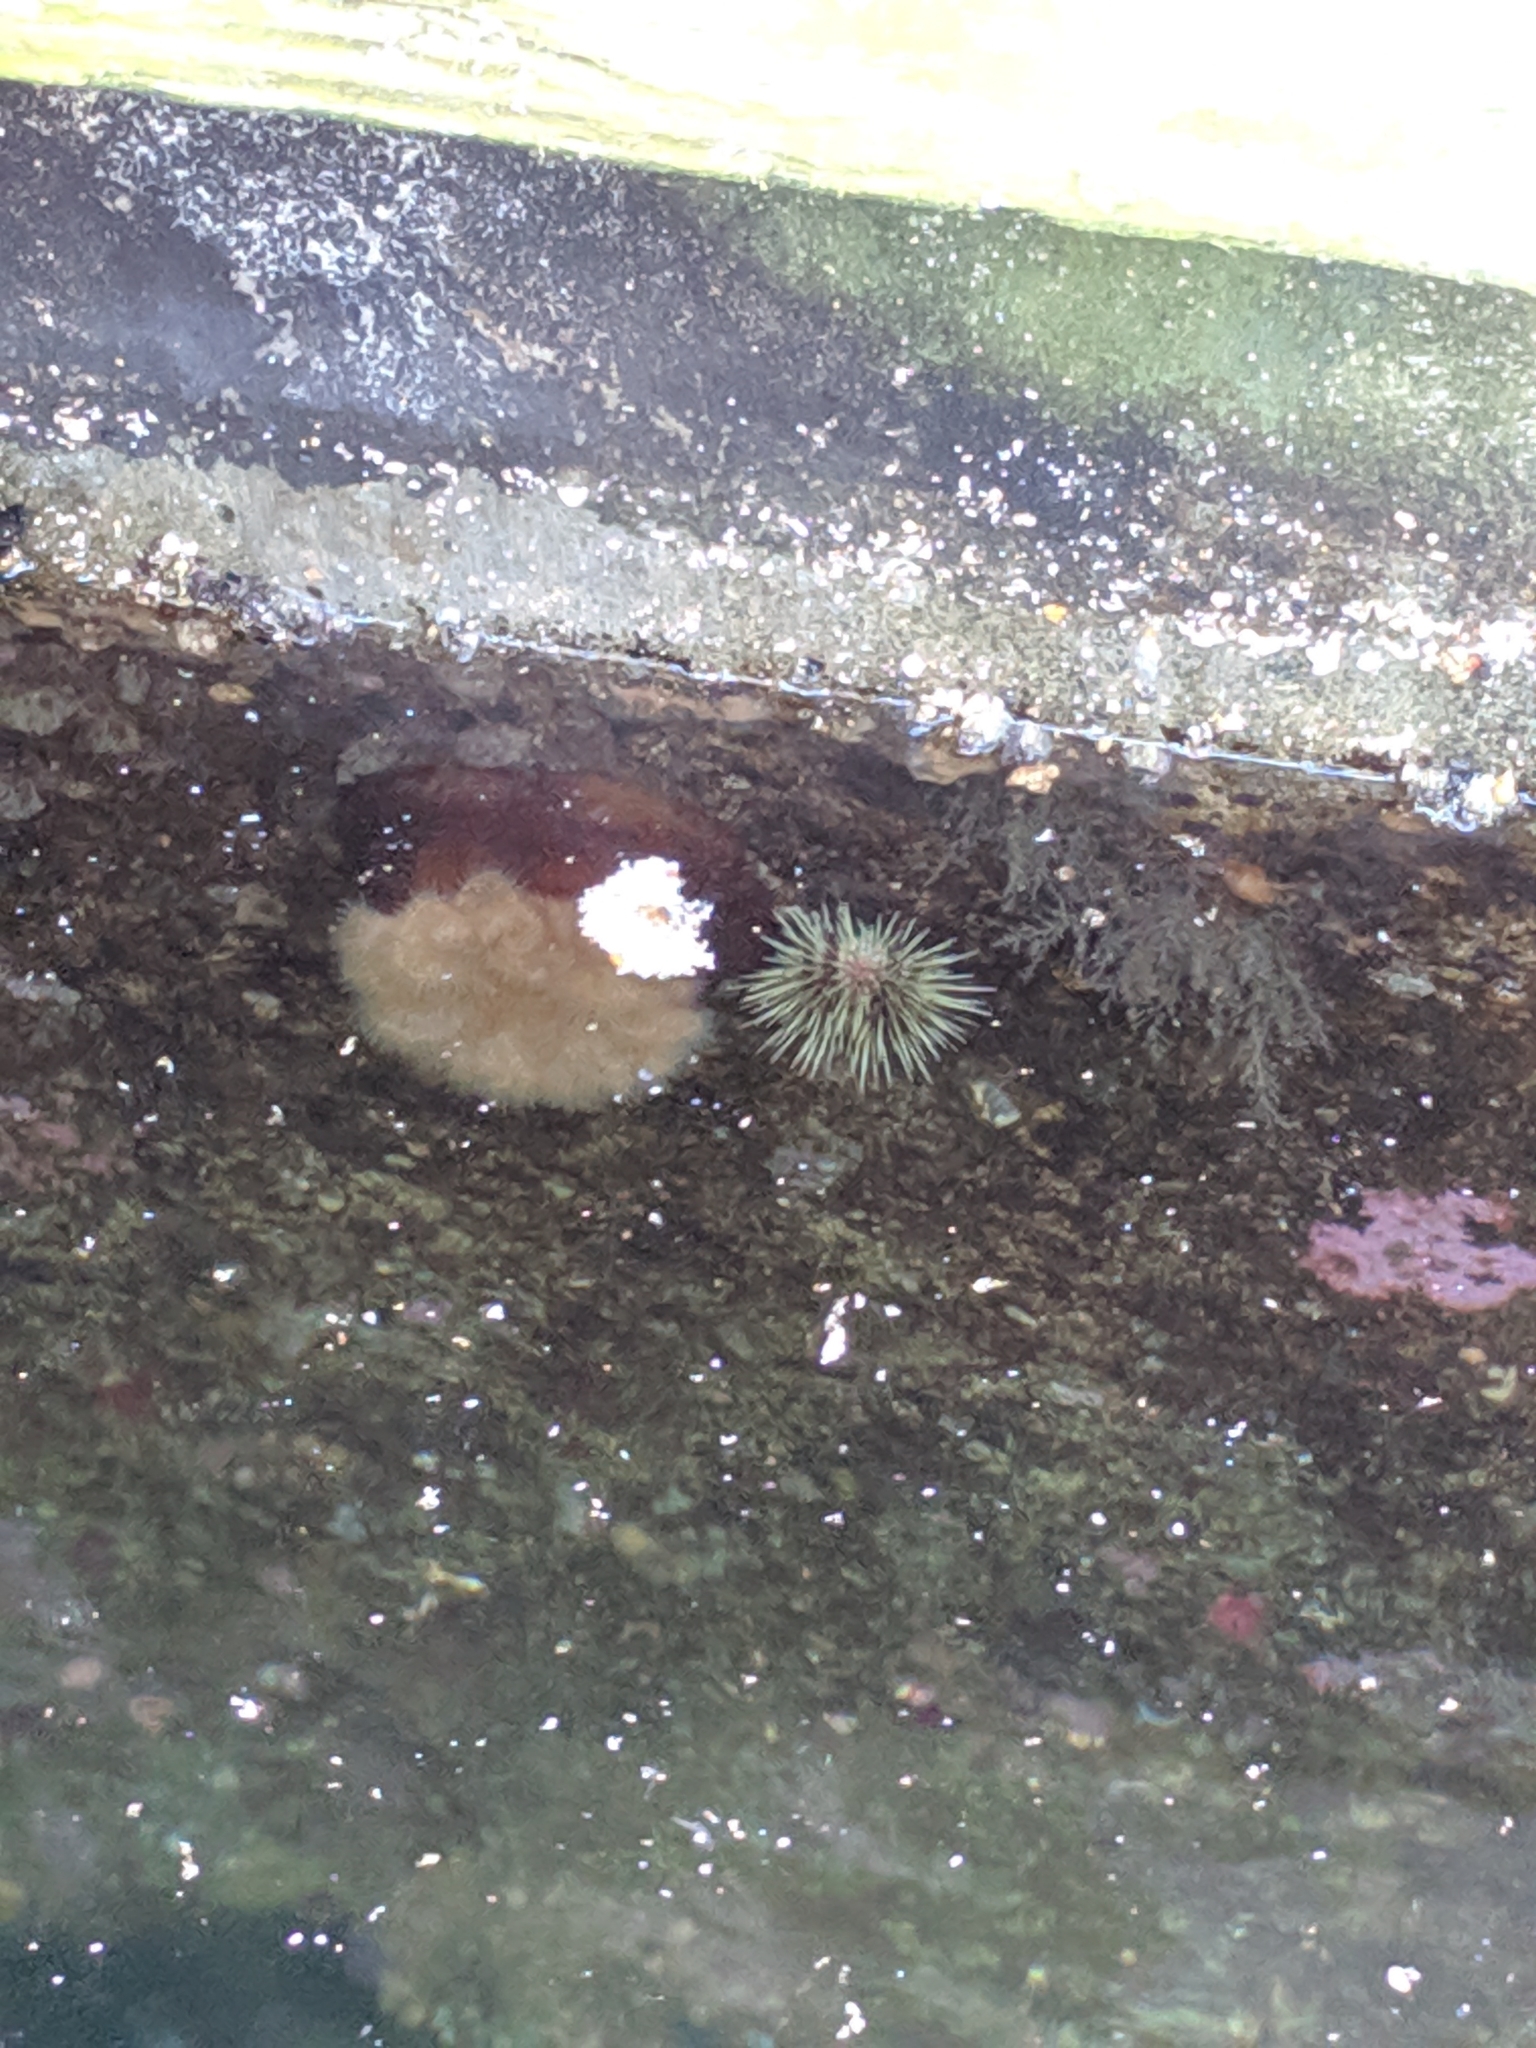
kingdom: Animalia
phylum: Echinodermata
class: Echinoidea
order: Camarodonta
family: Strongylocentrotidae
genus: Strongylocentrotus
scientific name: Strongylocentrotus droebachiensis
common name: Northern sea urchin
